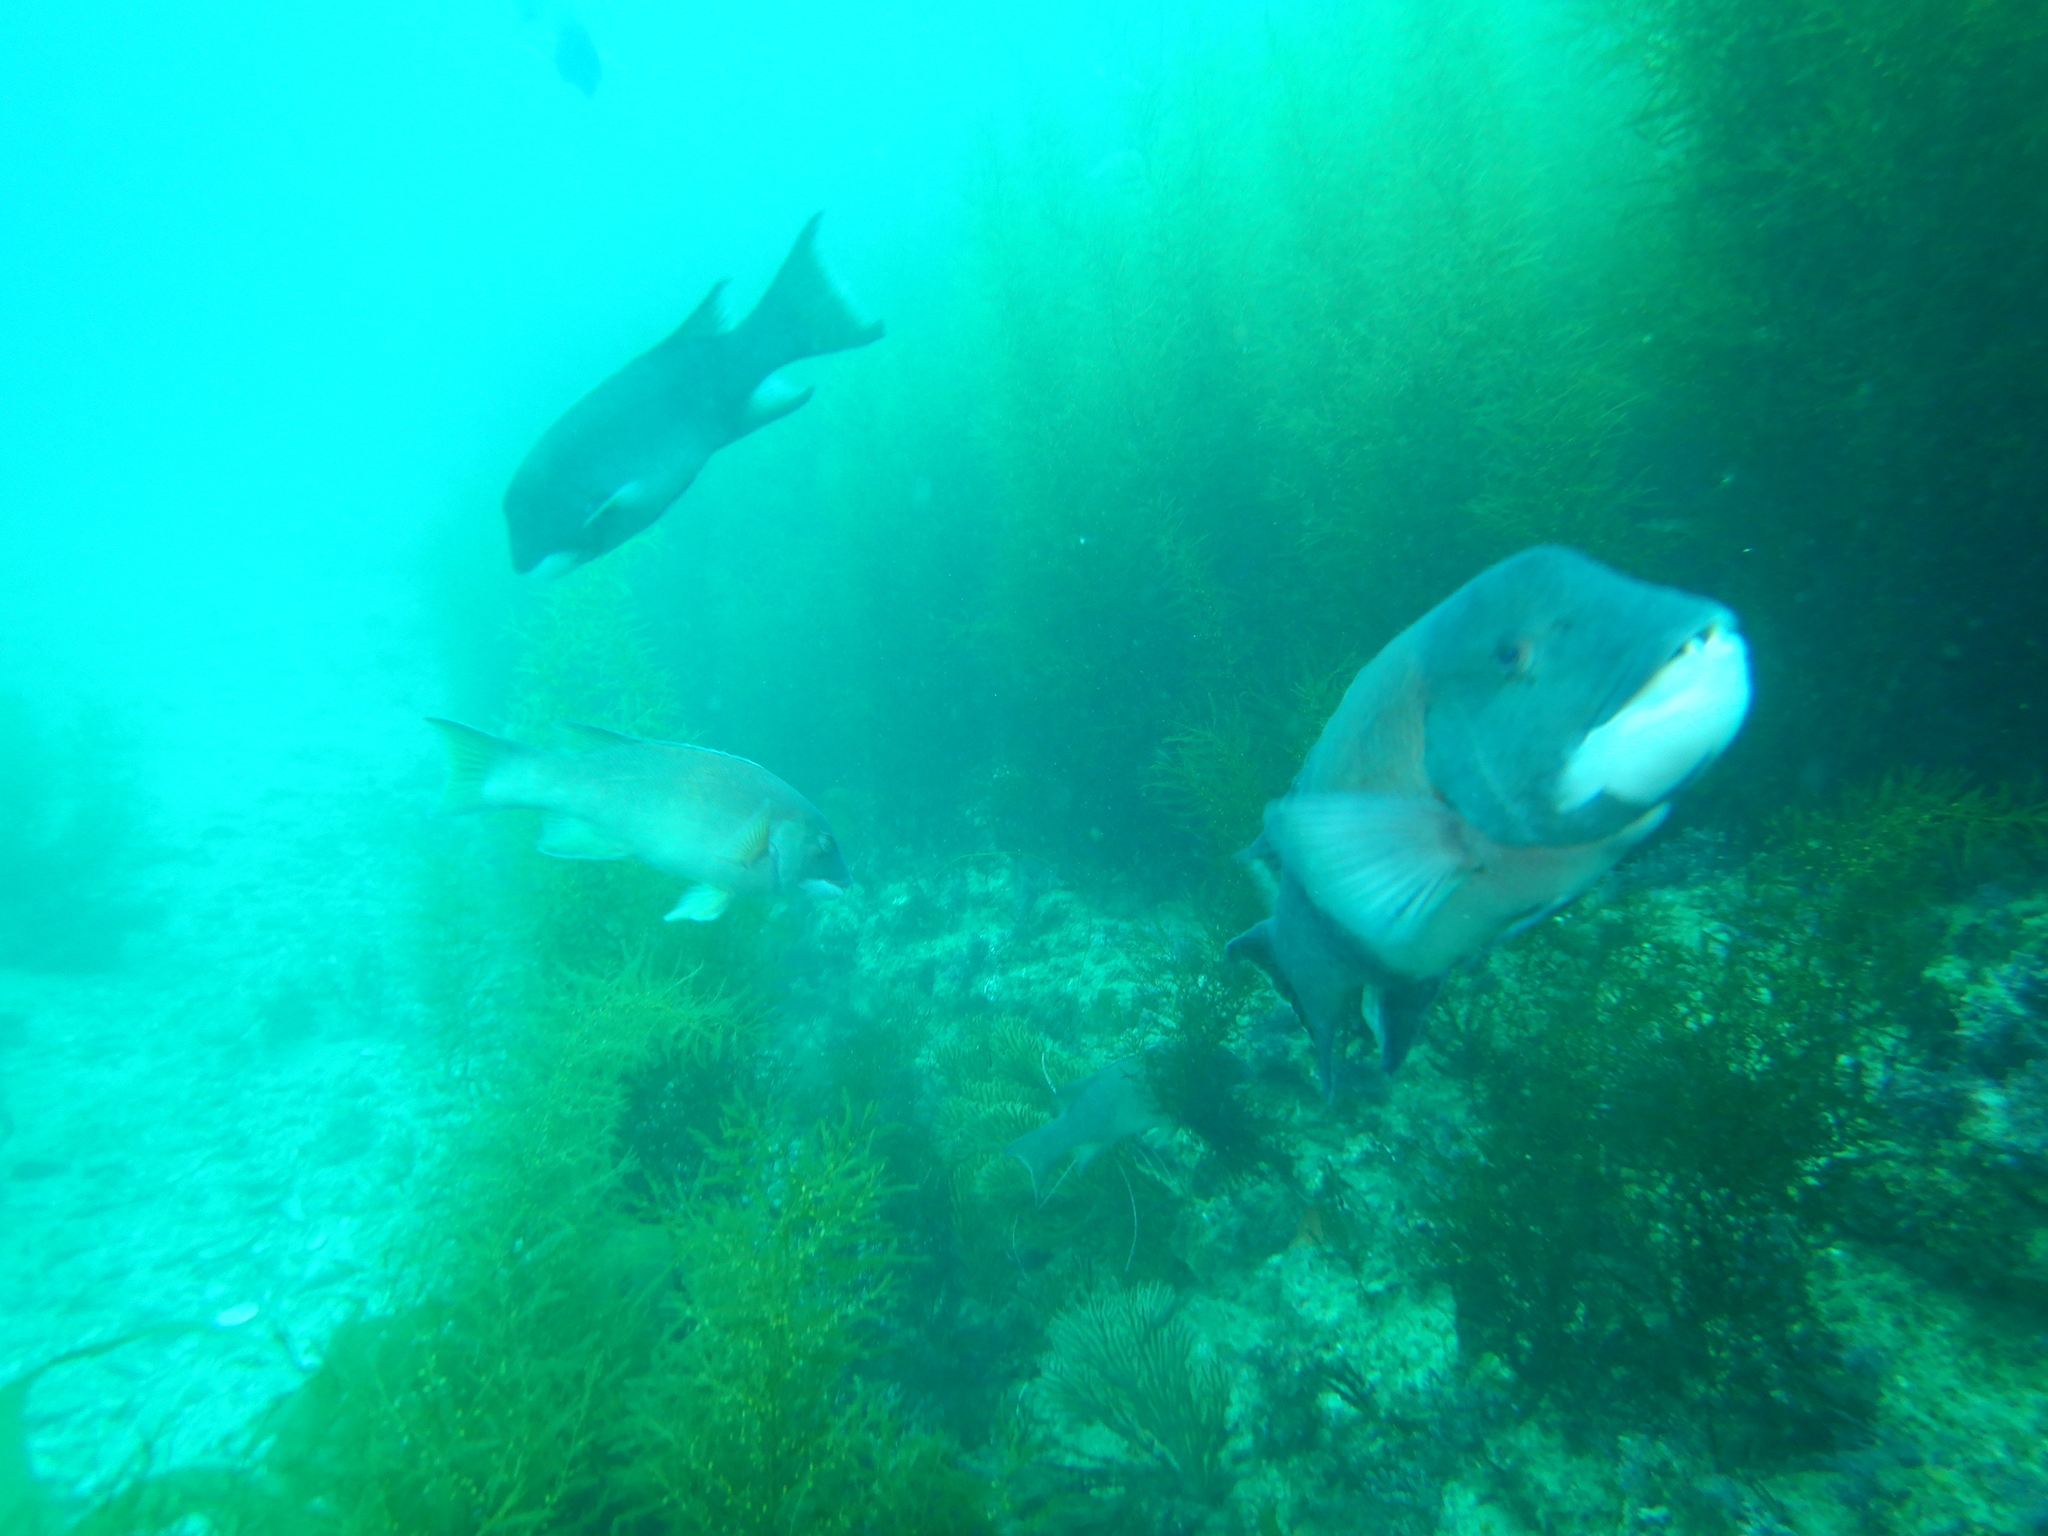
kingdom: Animalia
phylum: Chordata
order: Perciformes
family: Labridae
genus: Semicossyphus
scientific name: Semicossyphus pulcher
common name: California sheephead
